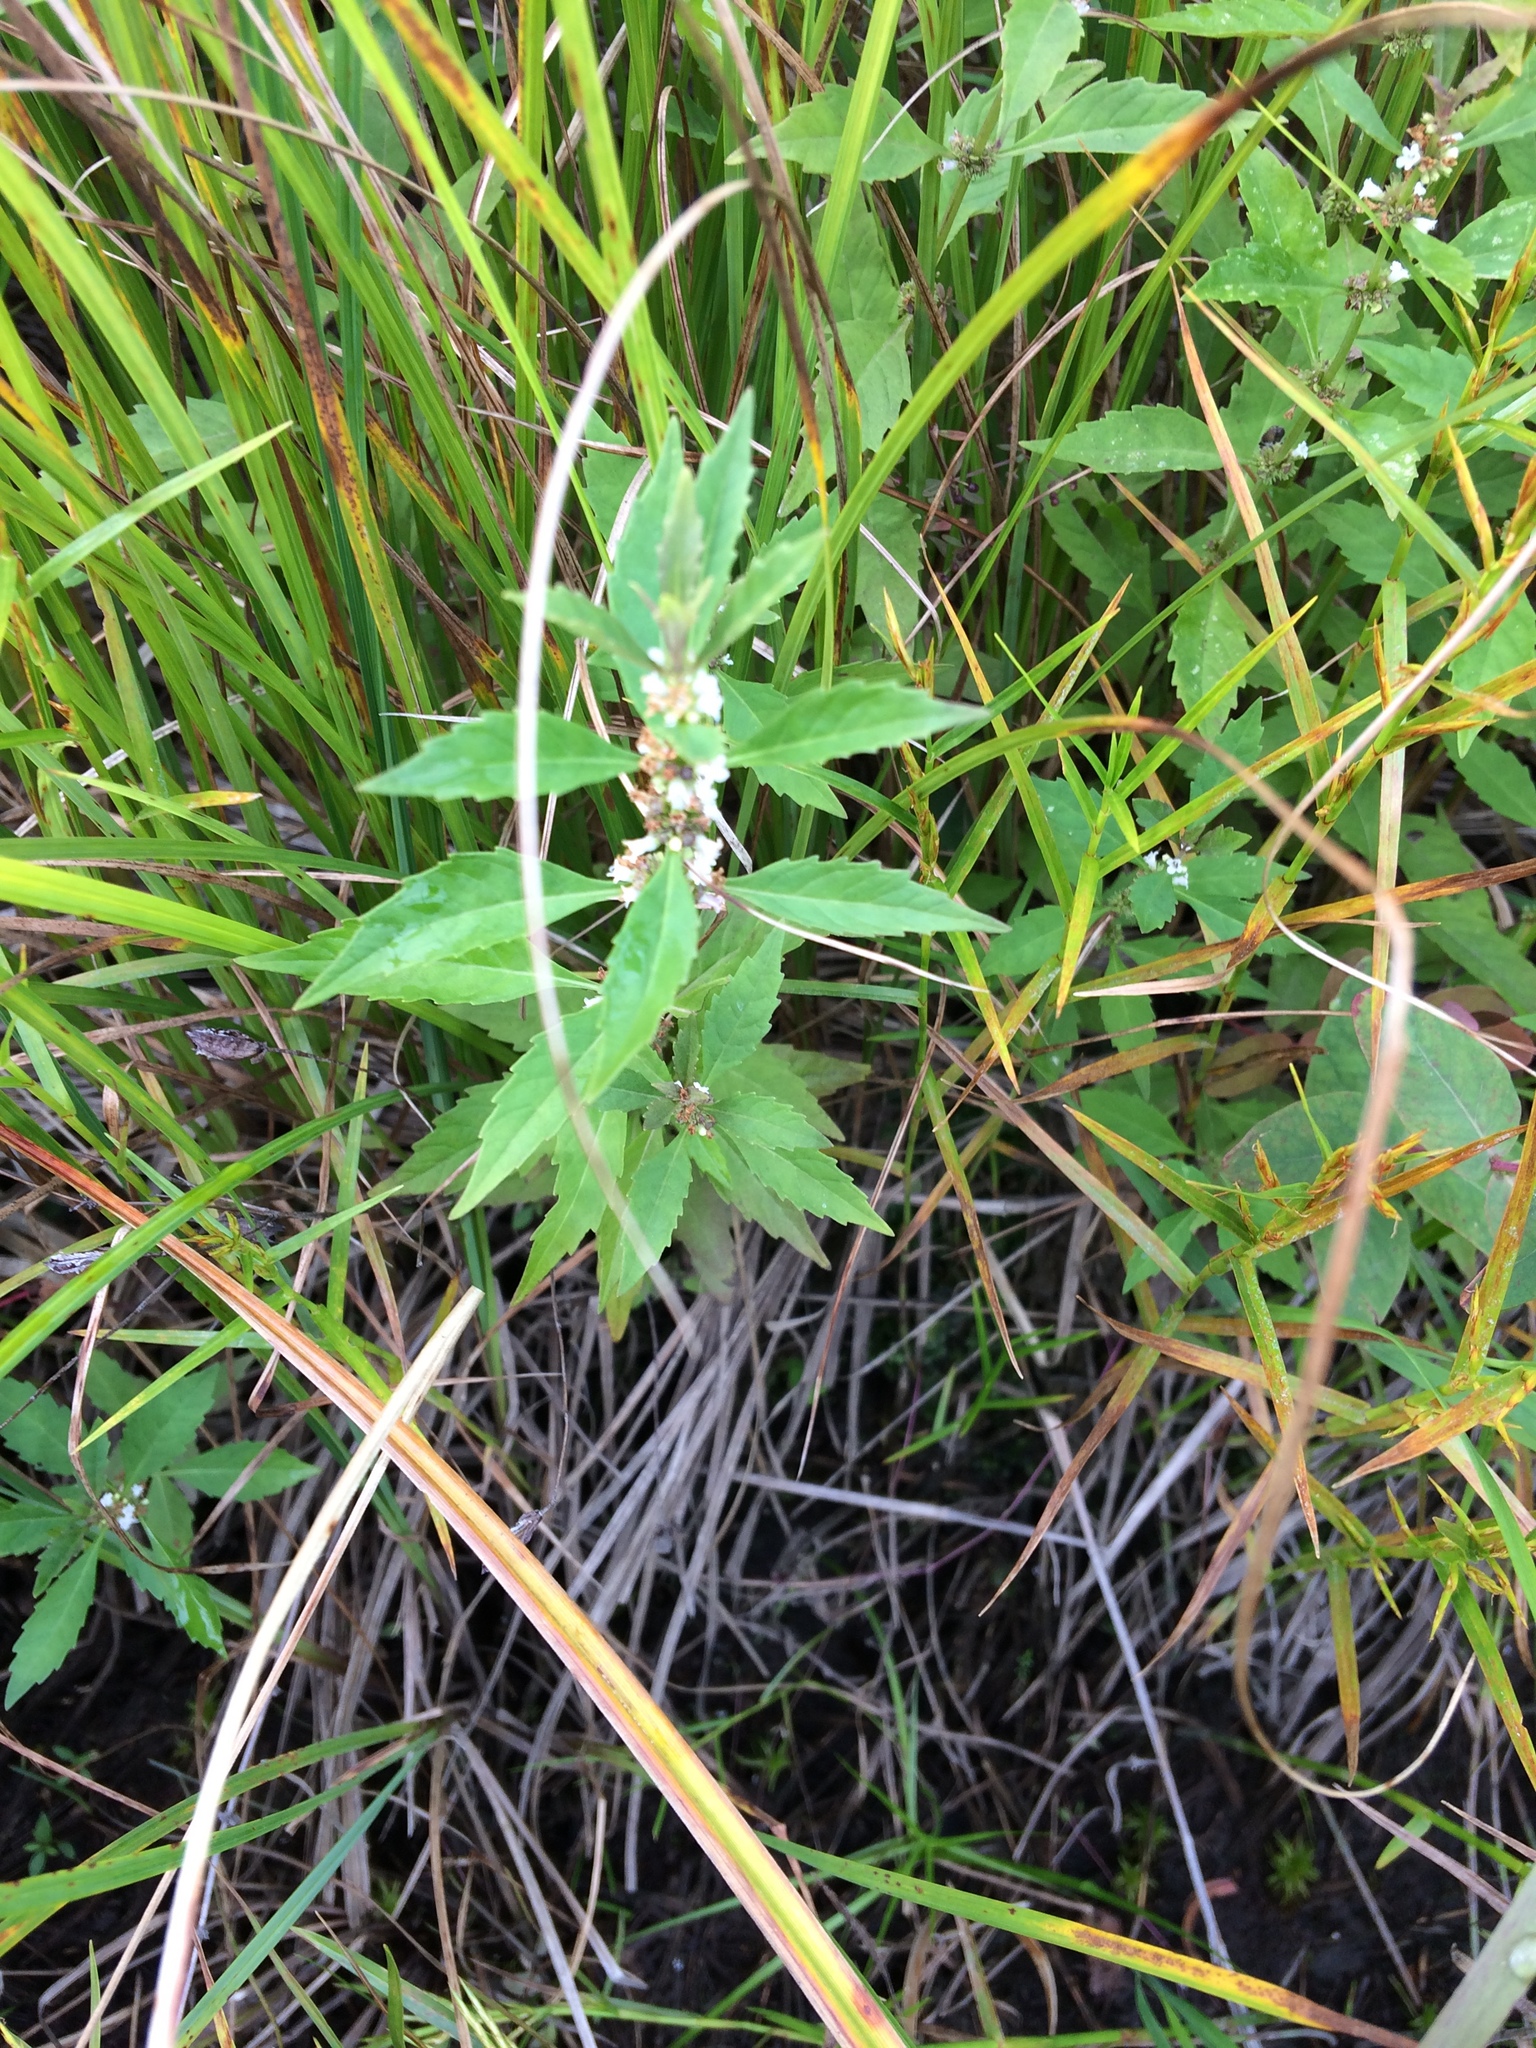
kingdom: Plantae
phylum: Tracheophyta
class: Magnoliopsida
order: Lamiales
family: Lamiaceae
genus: Lycopus
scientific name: Lycopus uniflorus
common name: Northern bugleweed
